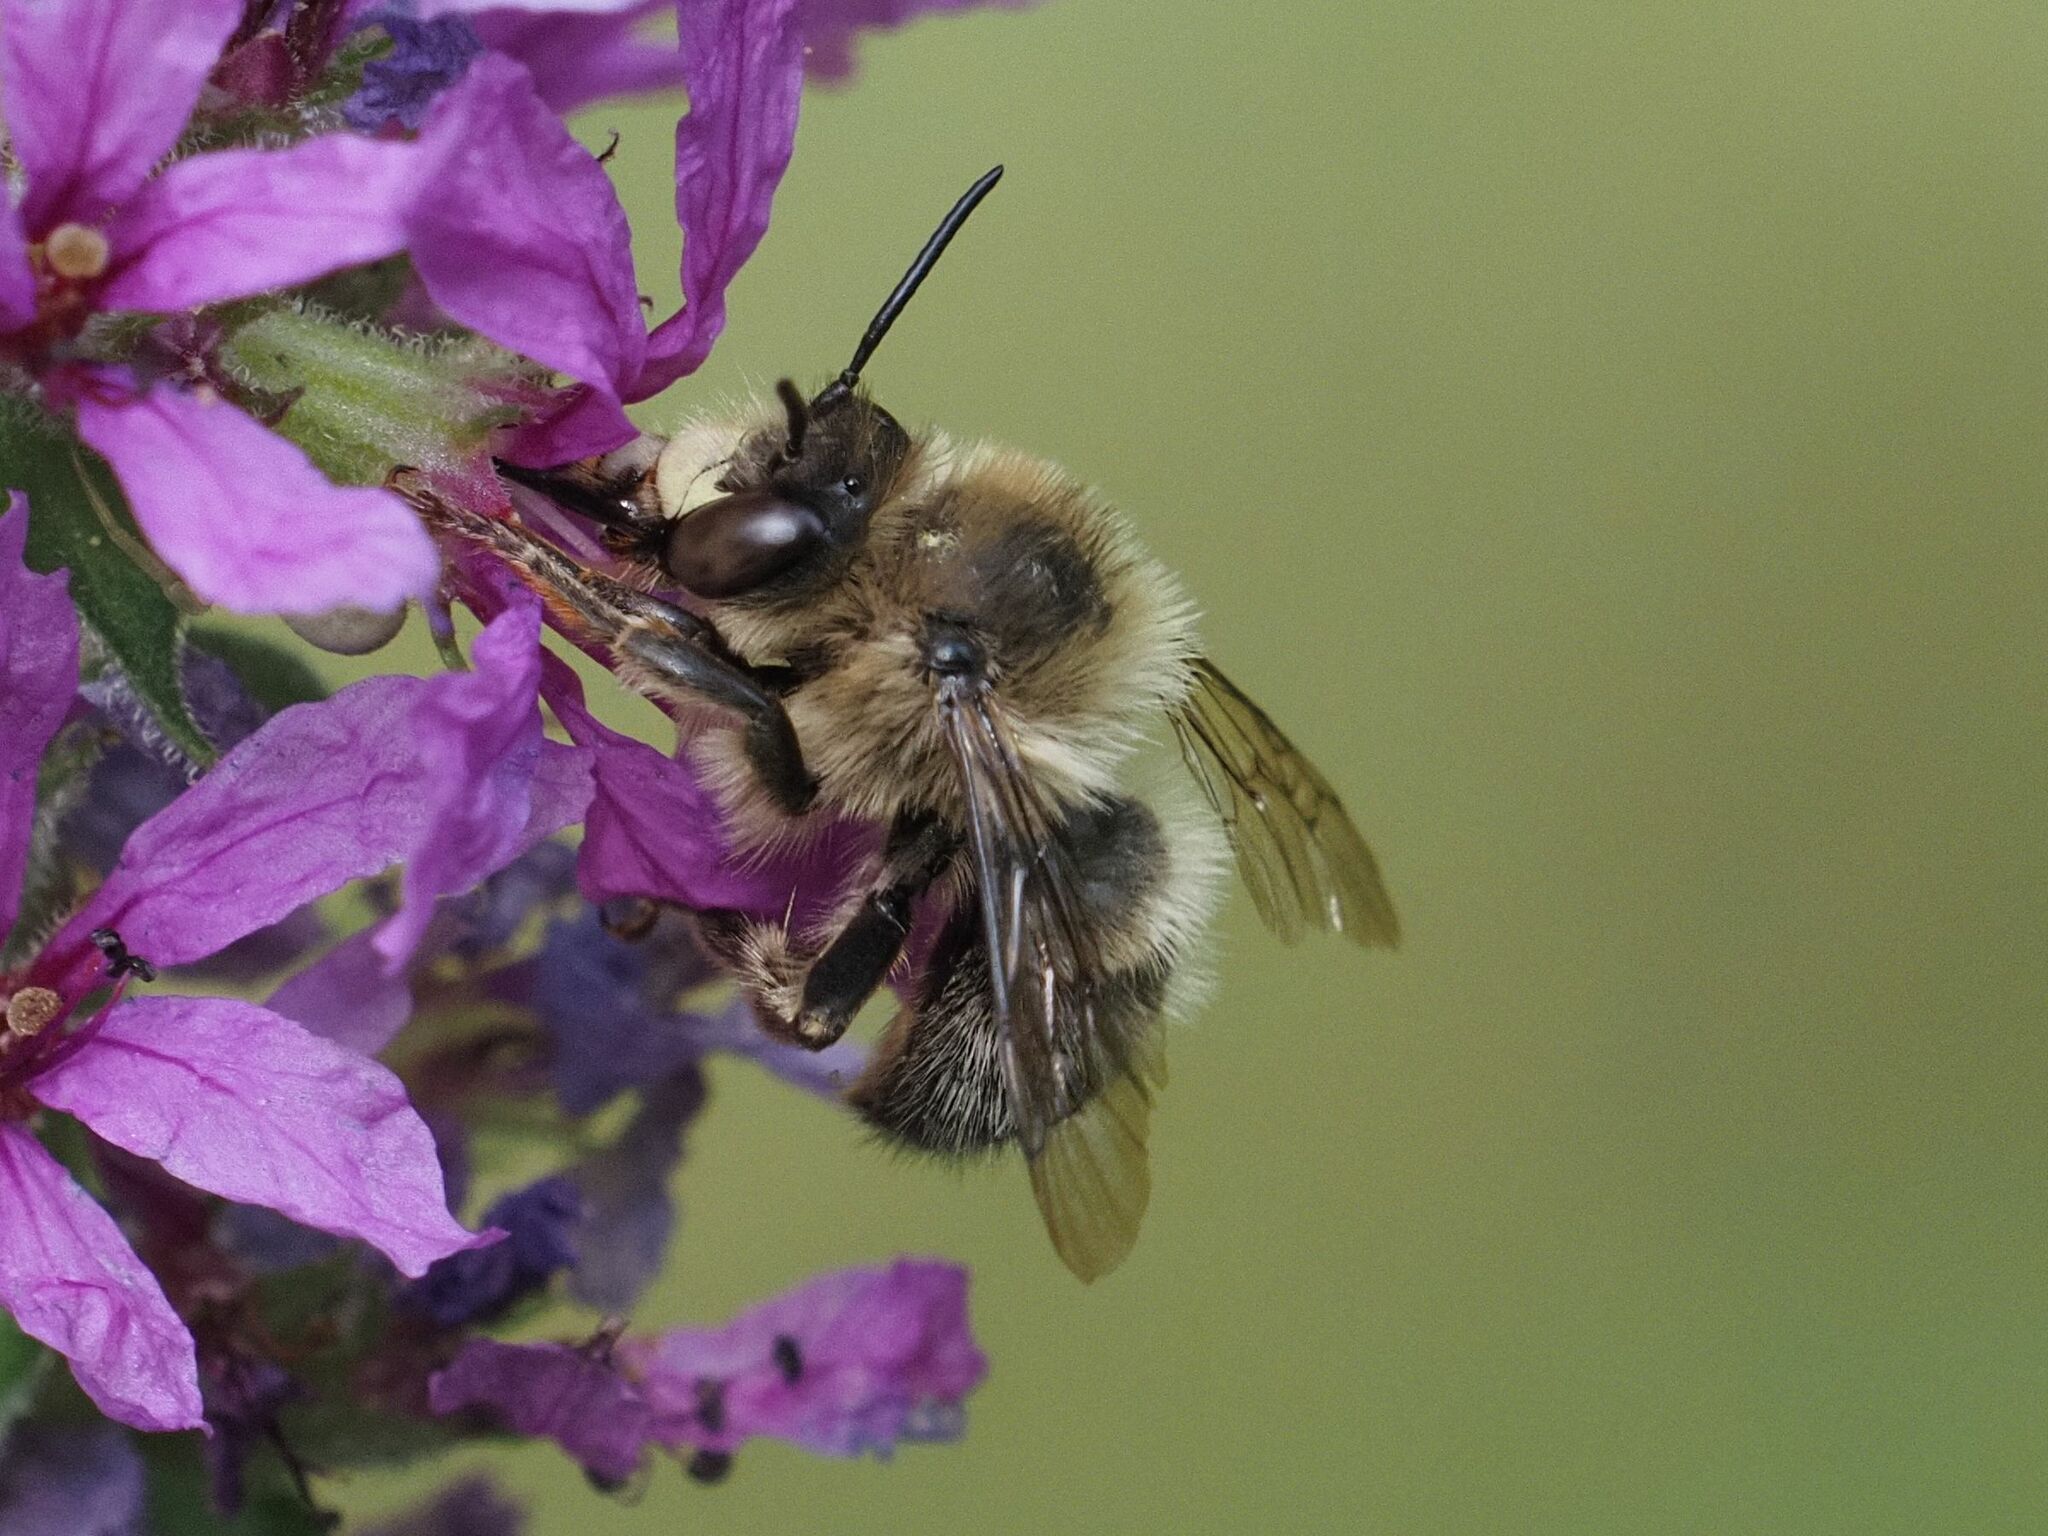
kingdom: Animalia
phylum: Arthropoda
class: Insecta
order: Hymenoptera
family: Apidae
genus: Anthophora
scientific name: Anthophora furcata
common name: Fork-tailed flower bee
